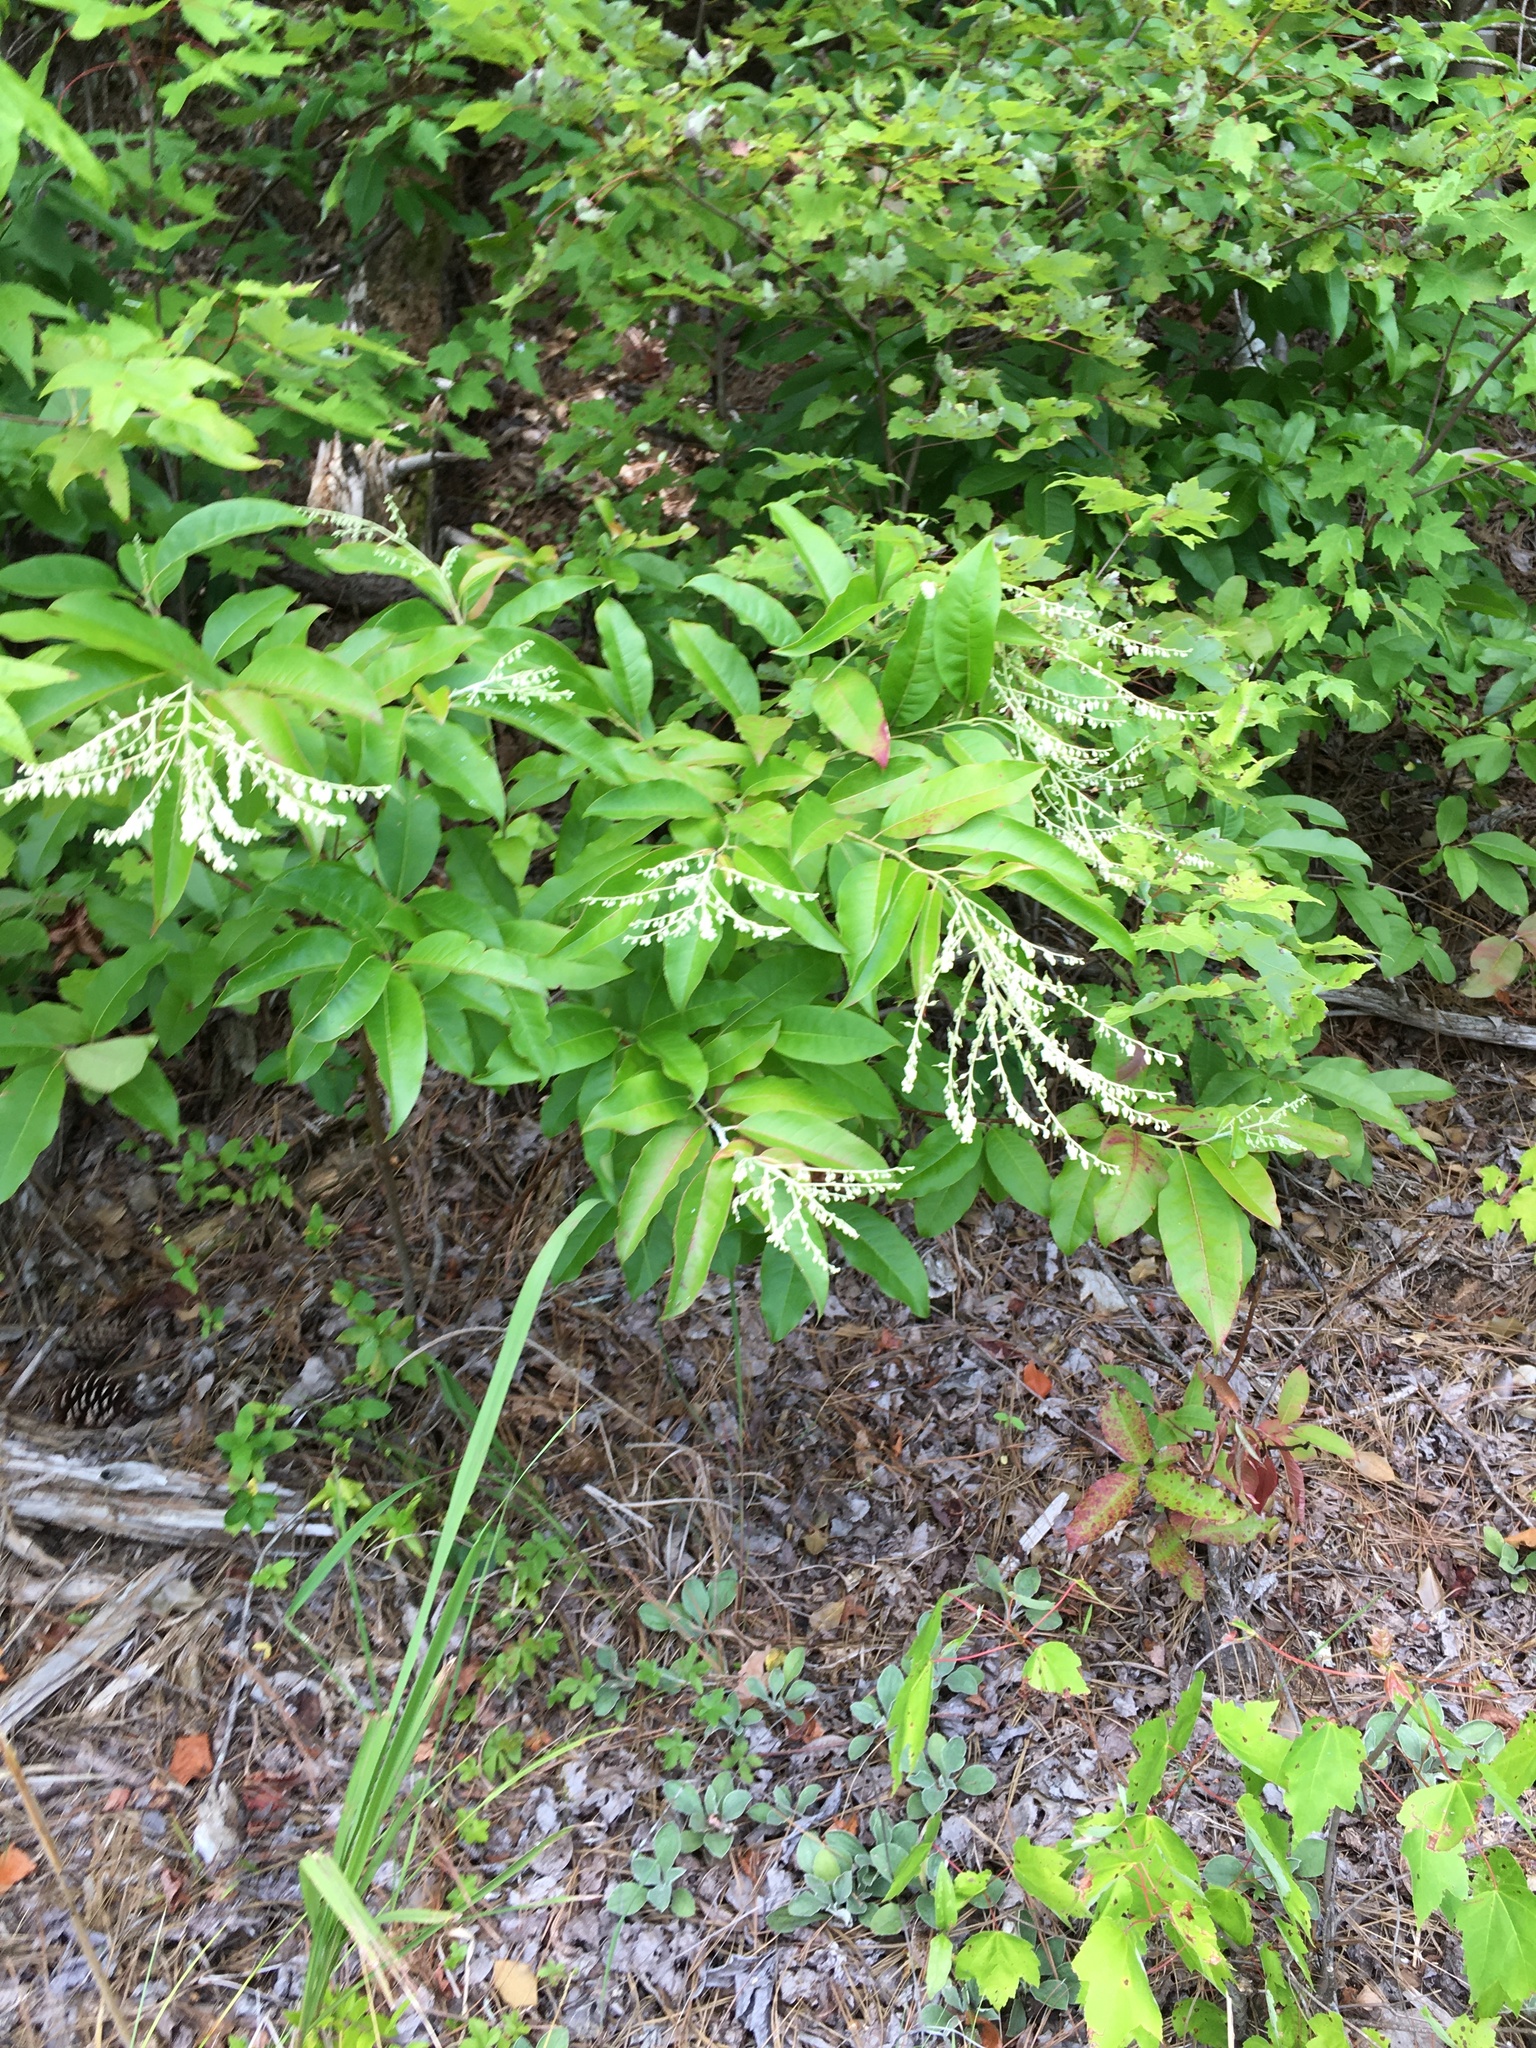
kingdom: Plantae
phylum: Tracheophyta
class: Magnoliopsida
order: Ericales
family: Ericaceae
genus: Oxydendrum
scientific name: Oxydendrum arboreum
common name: Sourwood
